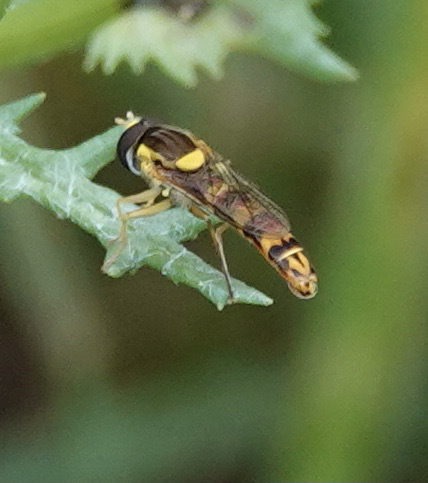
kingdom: Animalia
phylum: Arthropoda
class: Insecta
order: Diptera
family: Syrphidae
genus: Sphaerophoria
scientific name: Sphaerophoria scripta
